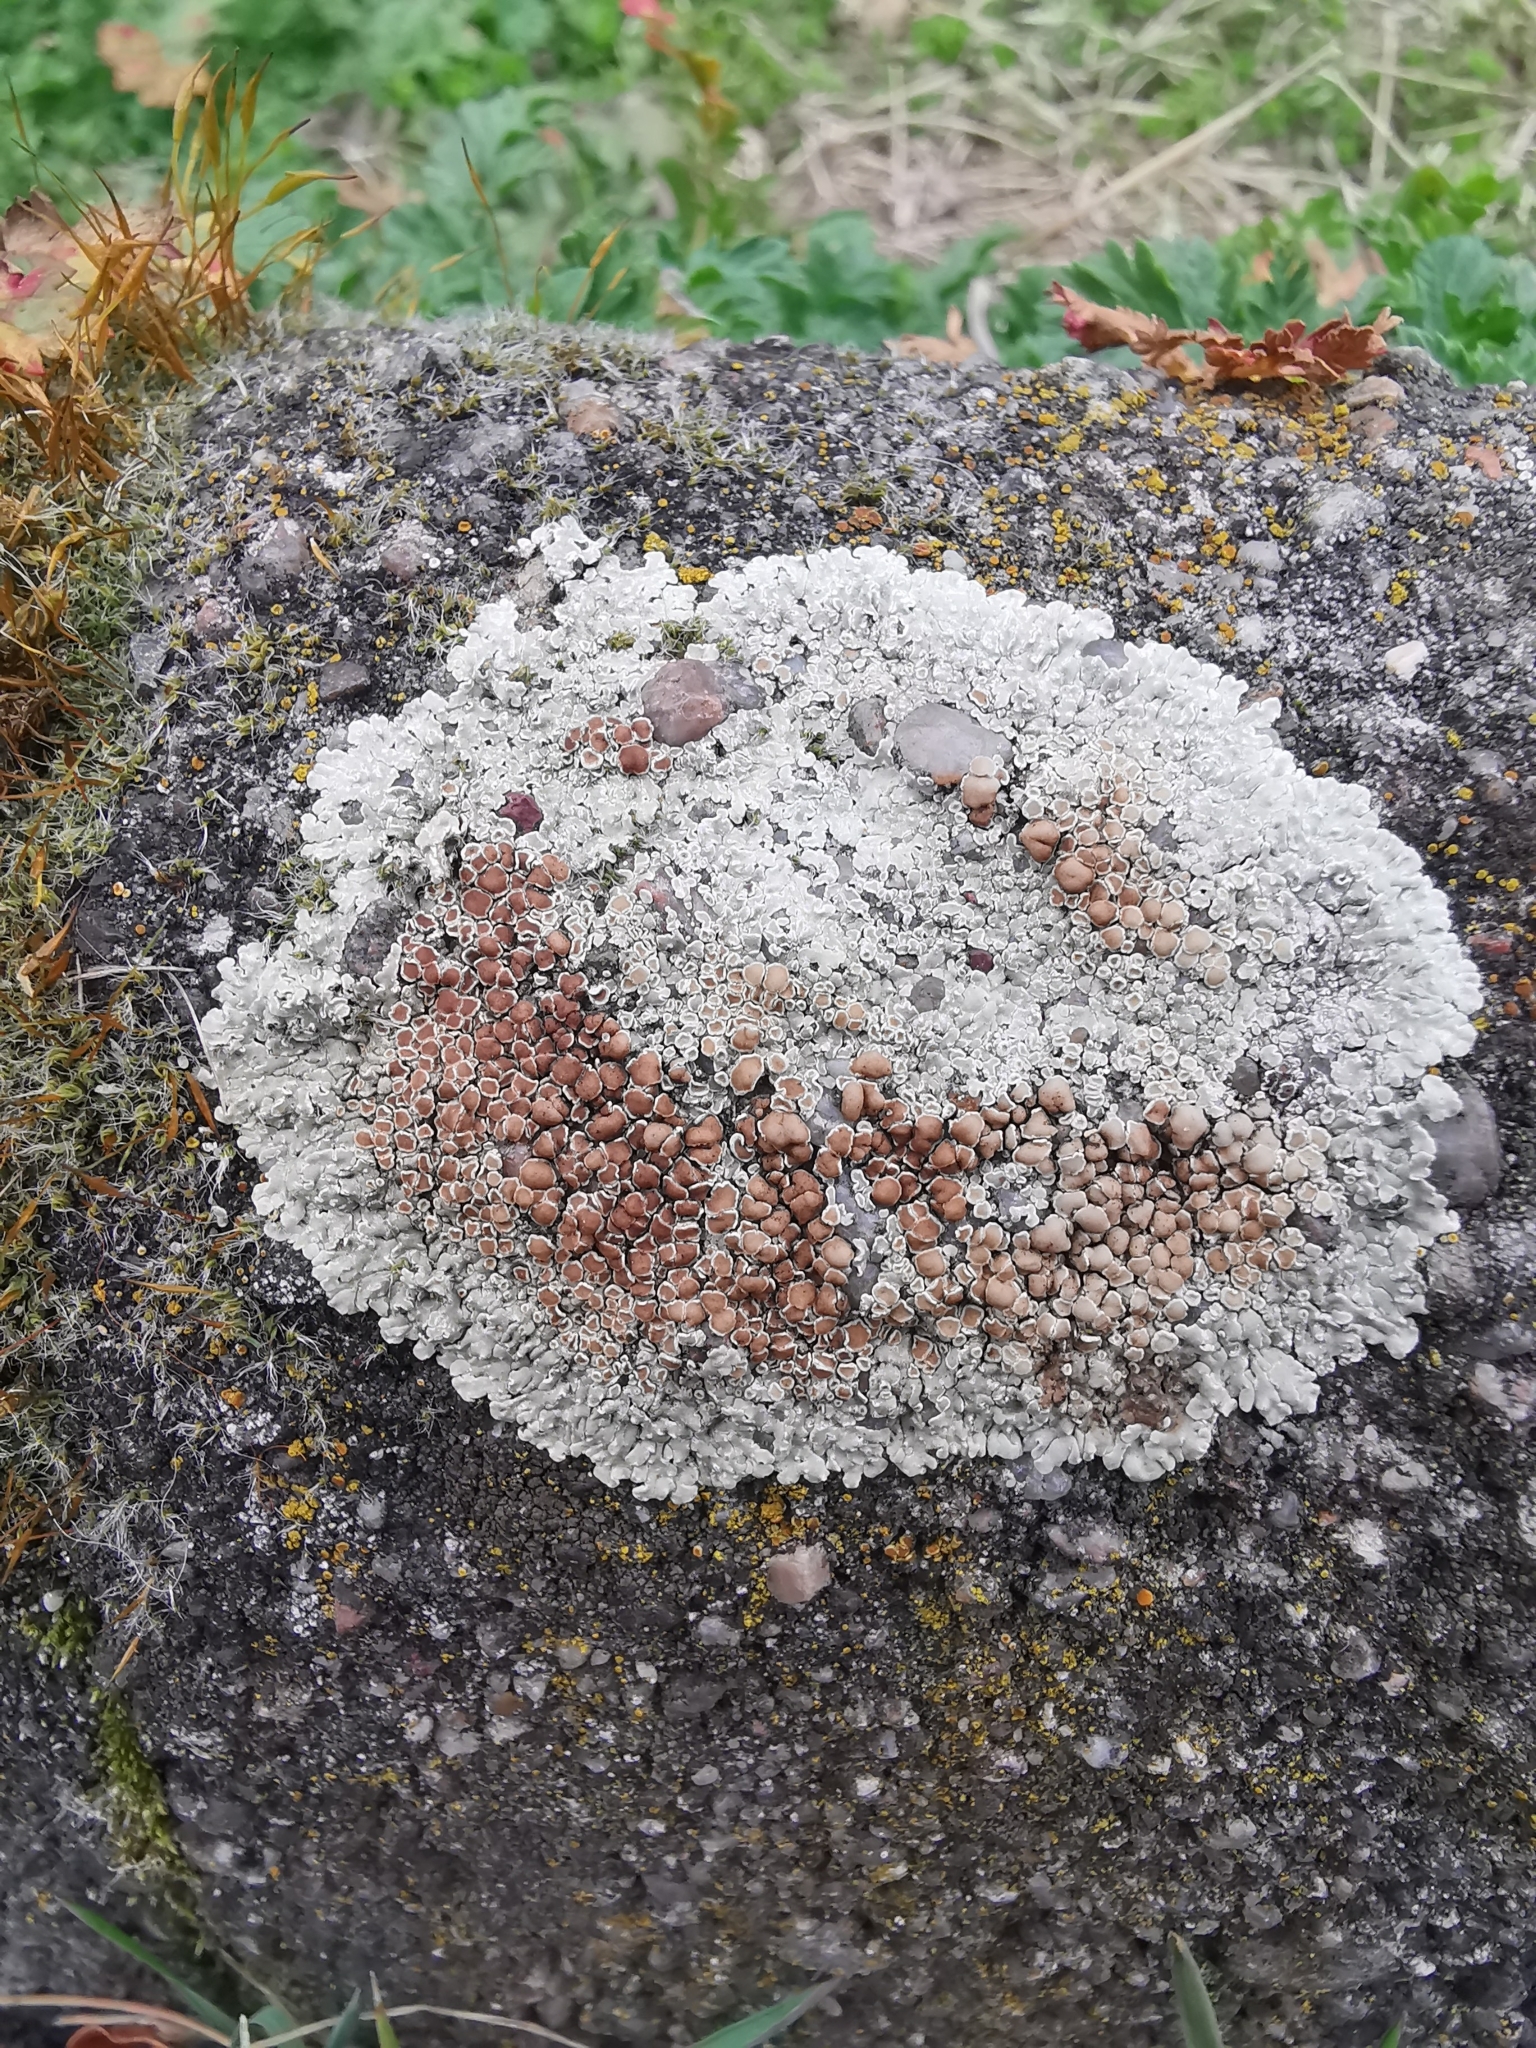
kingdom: Fungi
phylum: Ascomycota
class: Lecanoromycetes
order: Lecanorales
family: Lecanoraceae
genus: Protoparmeliopsis
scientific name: Protoparmeliopsis muralis
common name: Stonewall rim lichen
